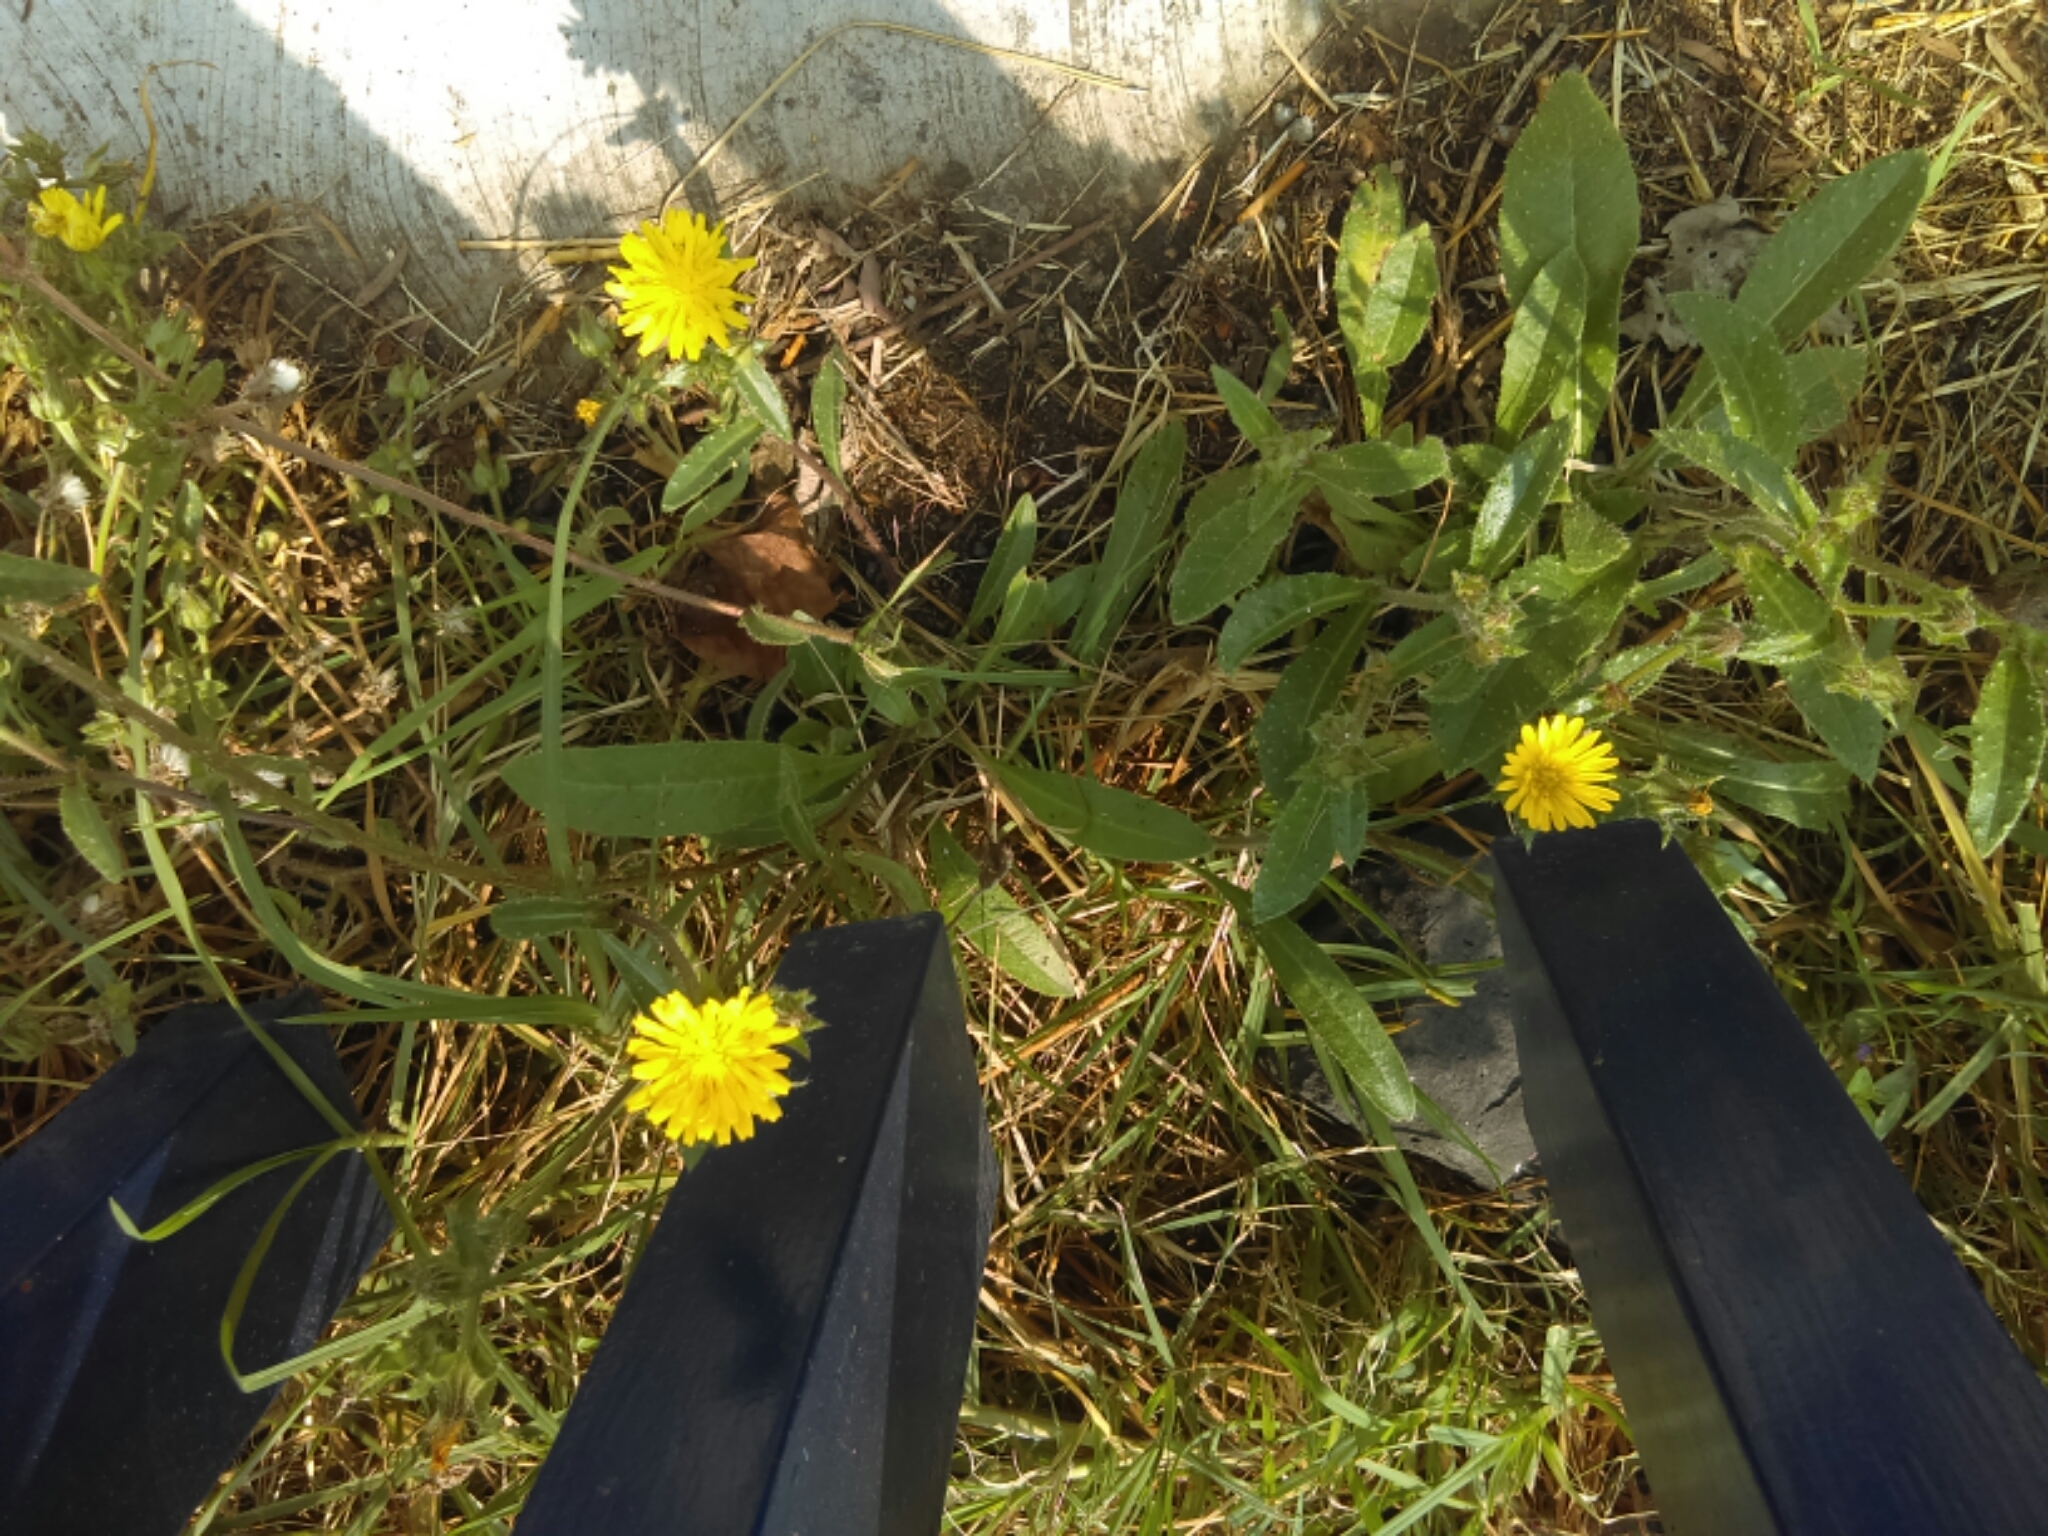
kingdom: Plantae
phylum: Tracheophyta
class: Magnoliopsida
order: Asterales
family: Asteraceae
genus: Helminthotheca
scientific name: Helminthotheca echioides
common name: Ox-tongue
